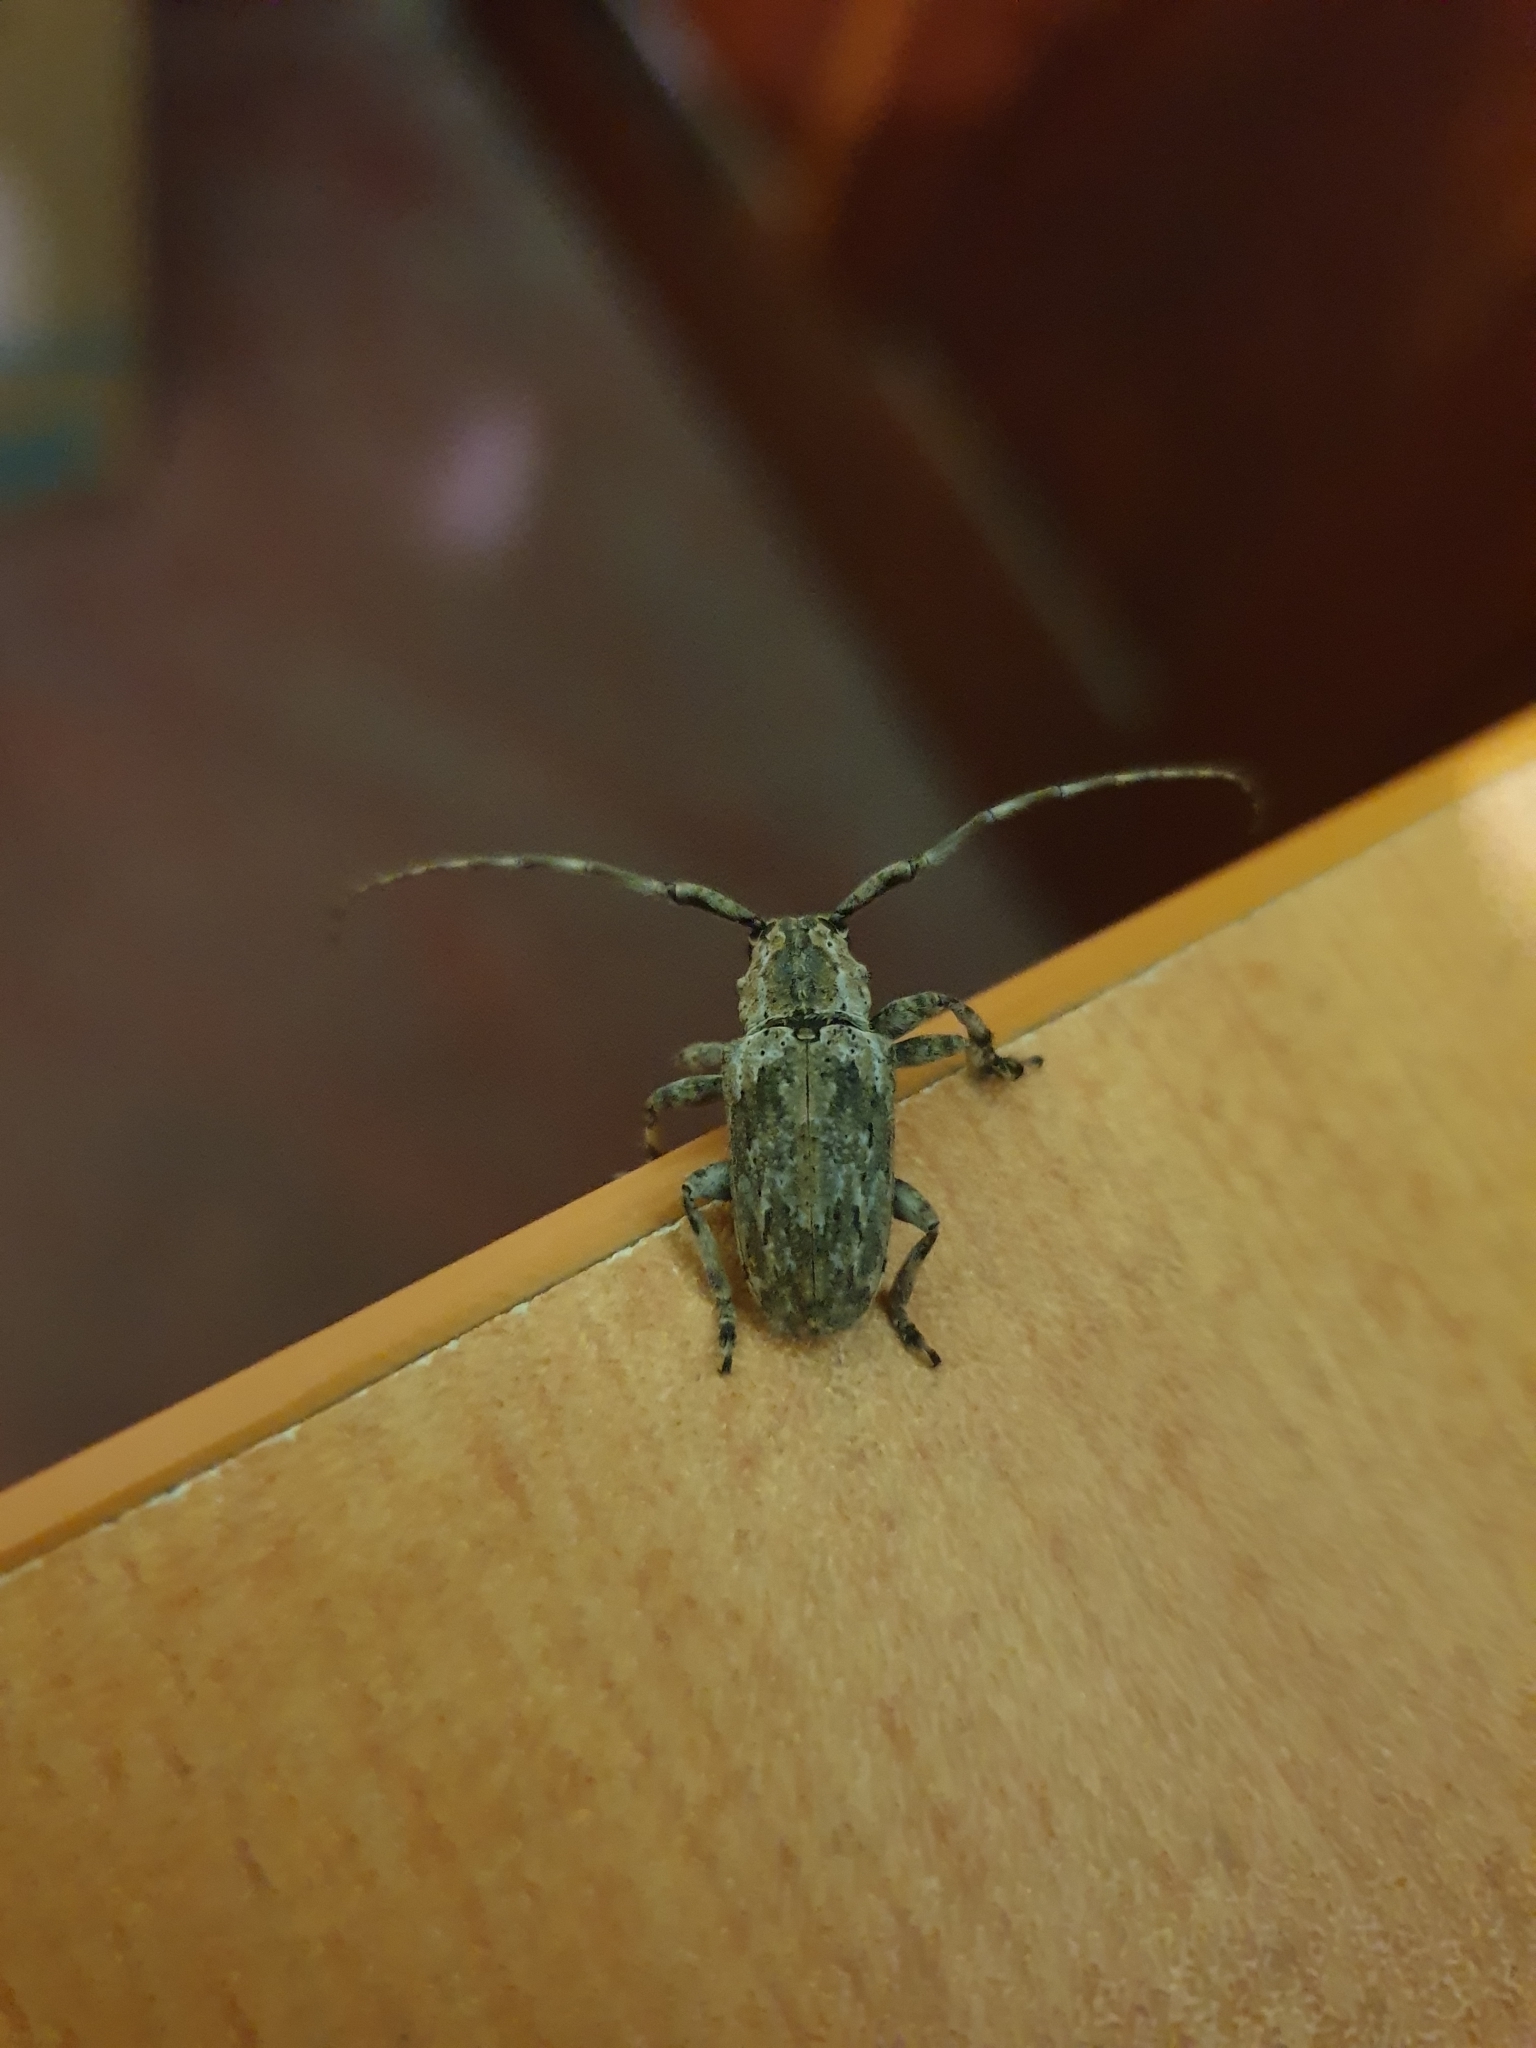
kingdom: Animalia
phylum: Arthropoda
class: Insecta
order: Coleoptera
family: Cerambycidae
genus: Coptops
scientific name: Coptops aedificator
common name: Long-horned beetle
